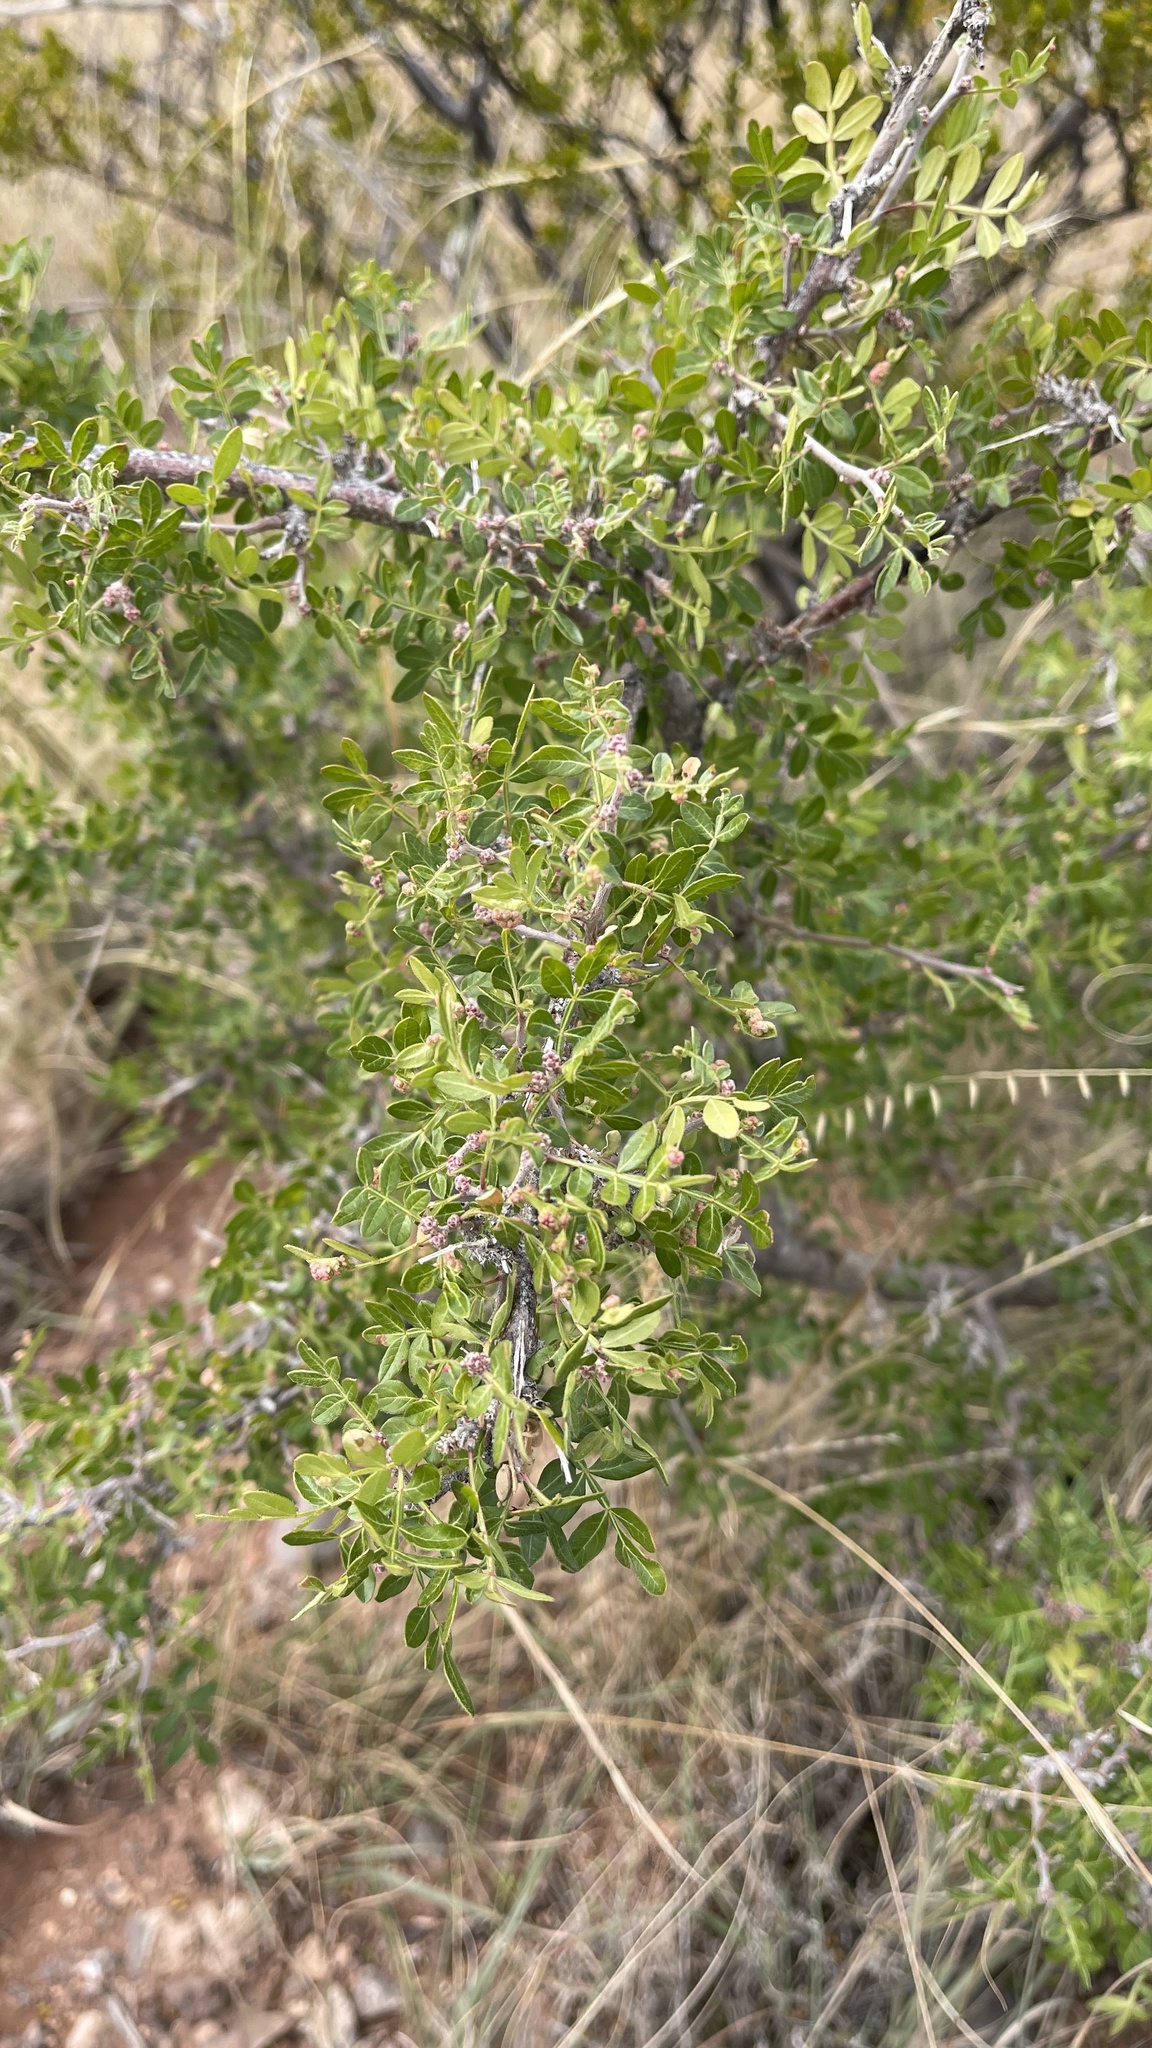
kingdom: Plantae
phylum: Tracheophyta
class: Magnoliopsida
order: Sapindales
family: Anacardiaceae
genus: Rhus
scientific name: Rhus microphylla
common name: Desert sumac
